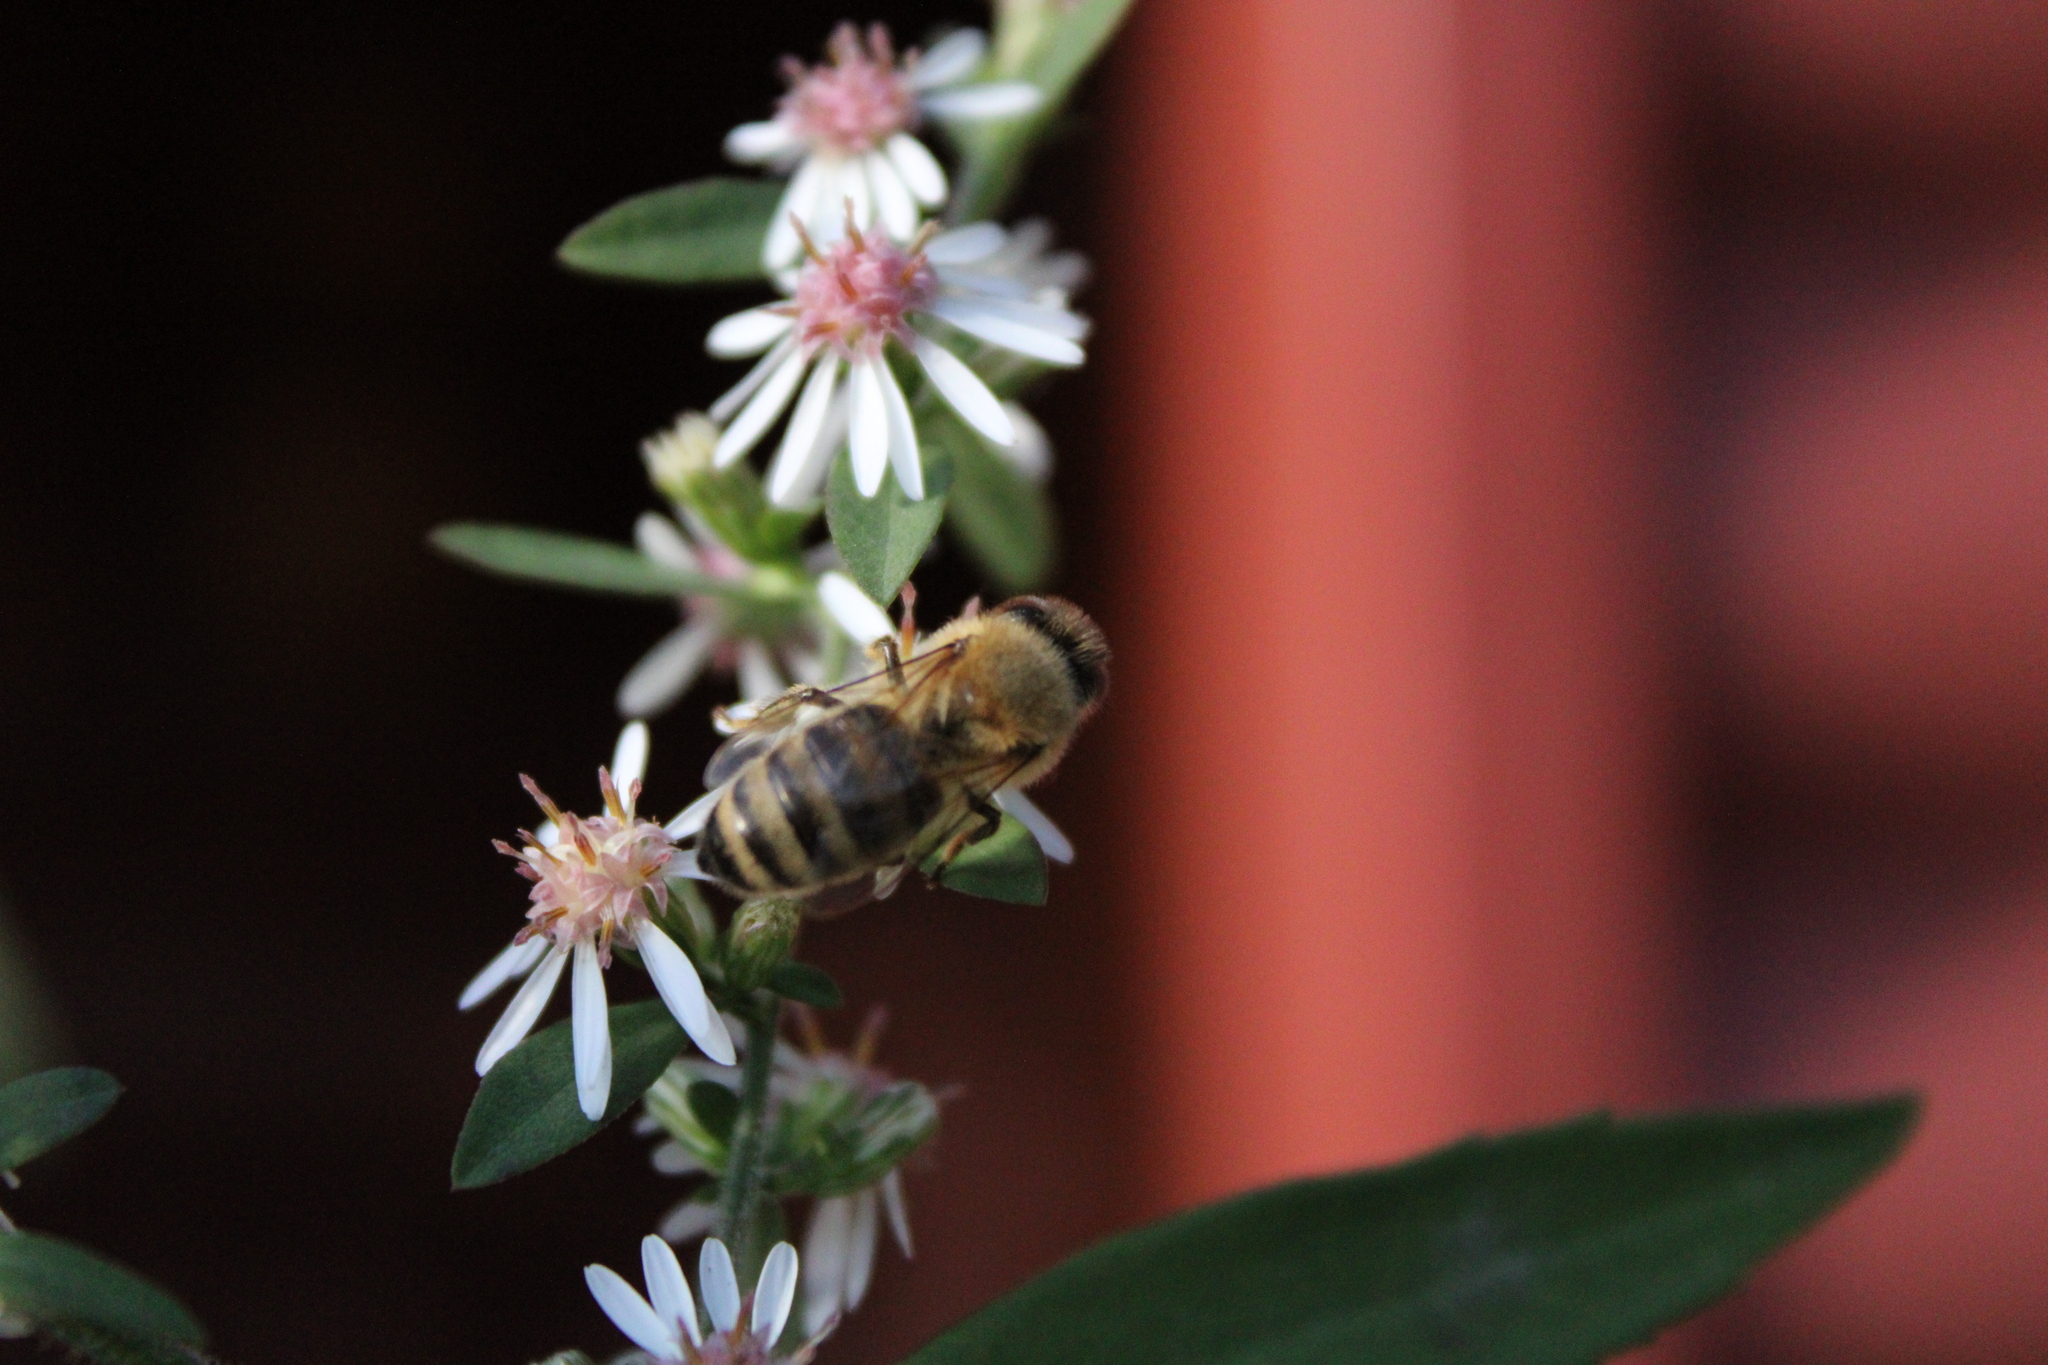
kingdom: Animalia
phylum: Arthropoda
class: Insecta
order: Hymenoptera
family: Apidae
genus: Apis
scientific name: Apis mellifera
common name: Honey bee
